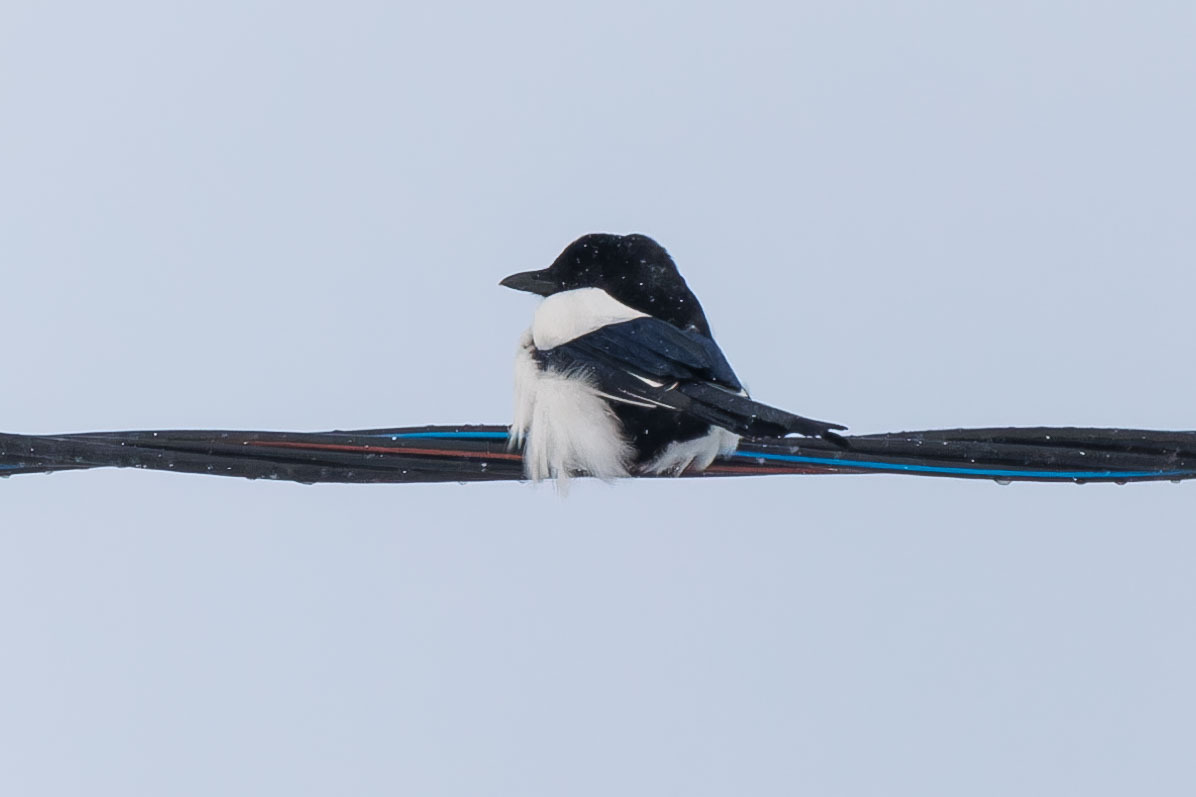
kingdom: Animalia
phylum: Chordata
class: Aves
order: Passeriformes
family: Corvidae
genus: Pica
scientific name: Pica pica
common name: Eurasian magpie
